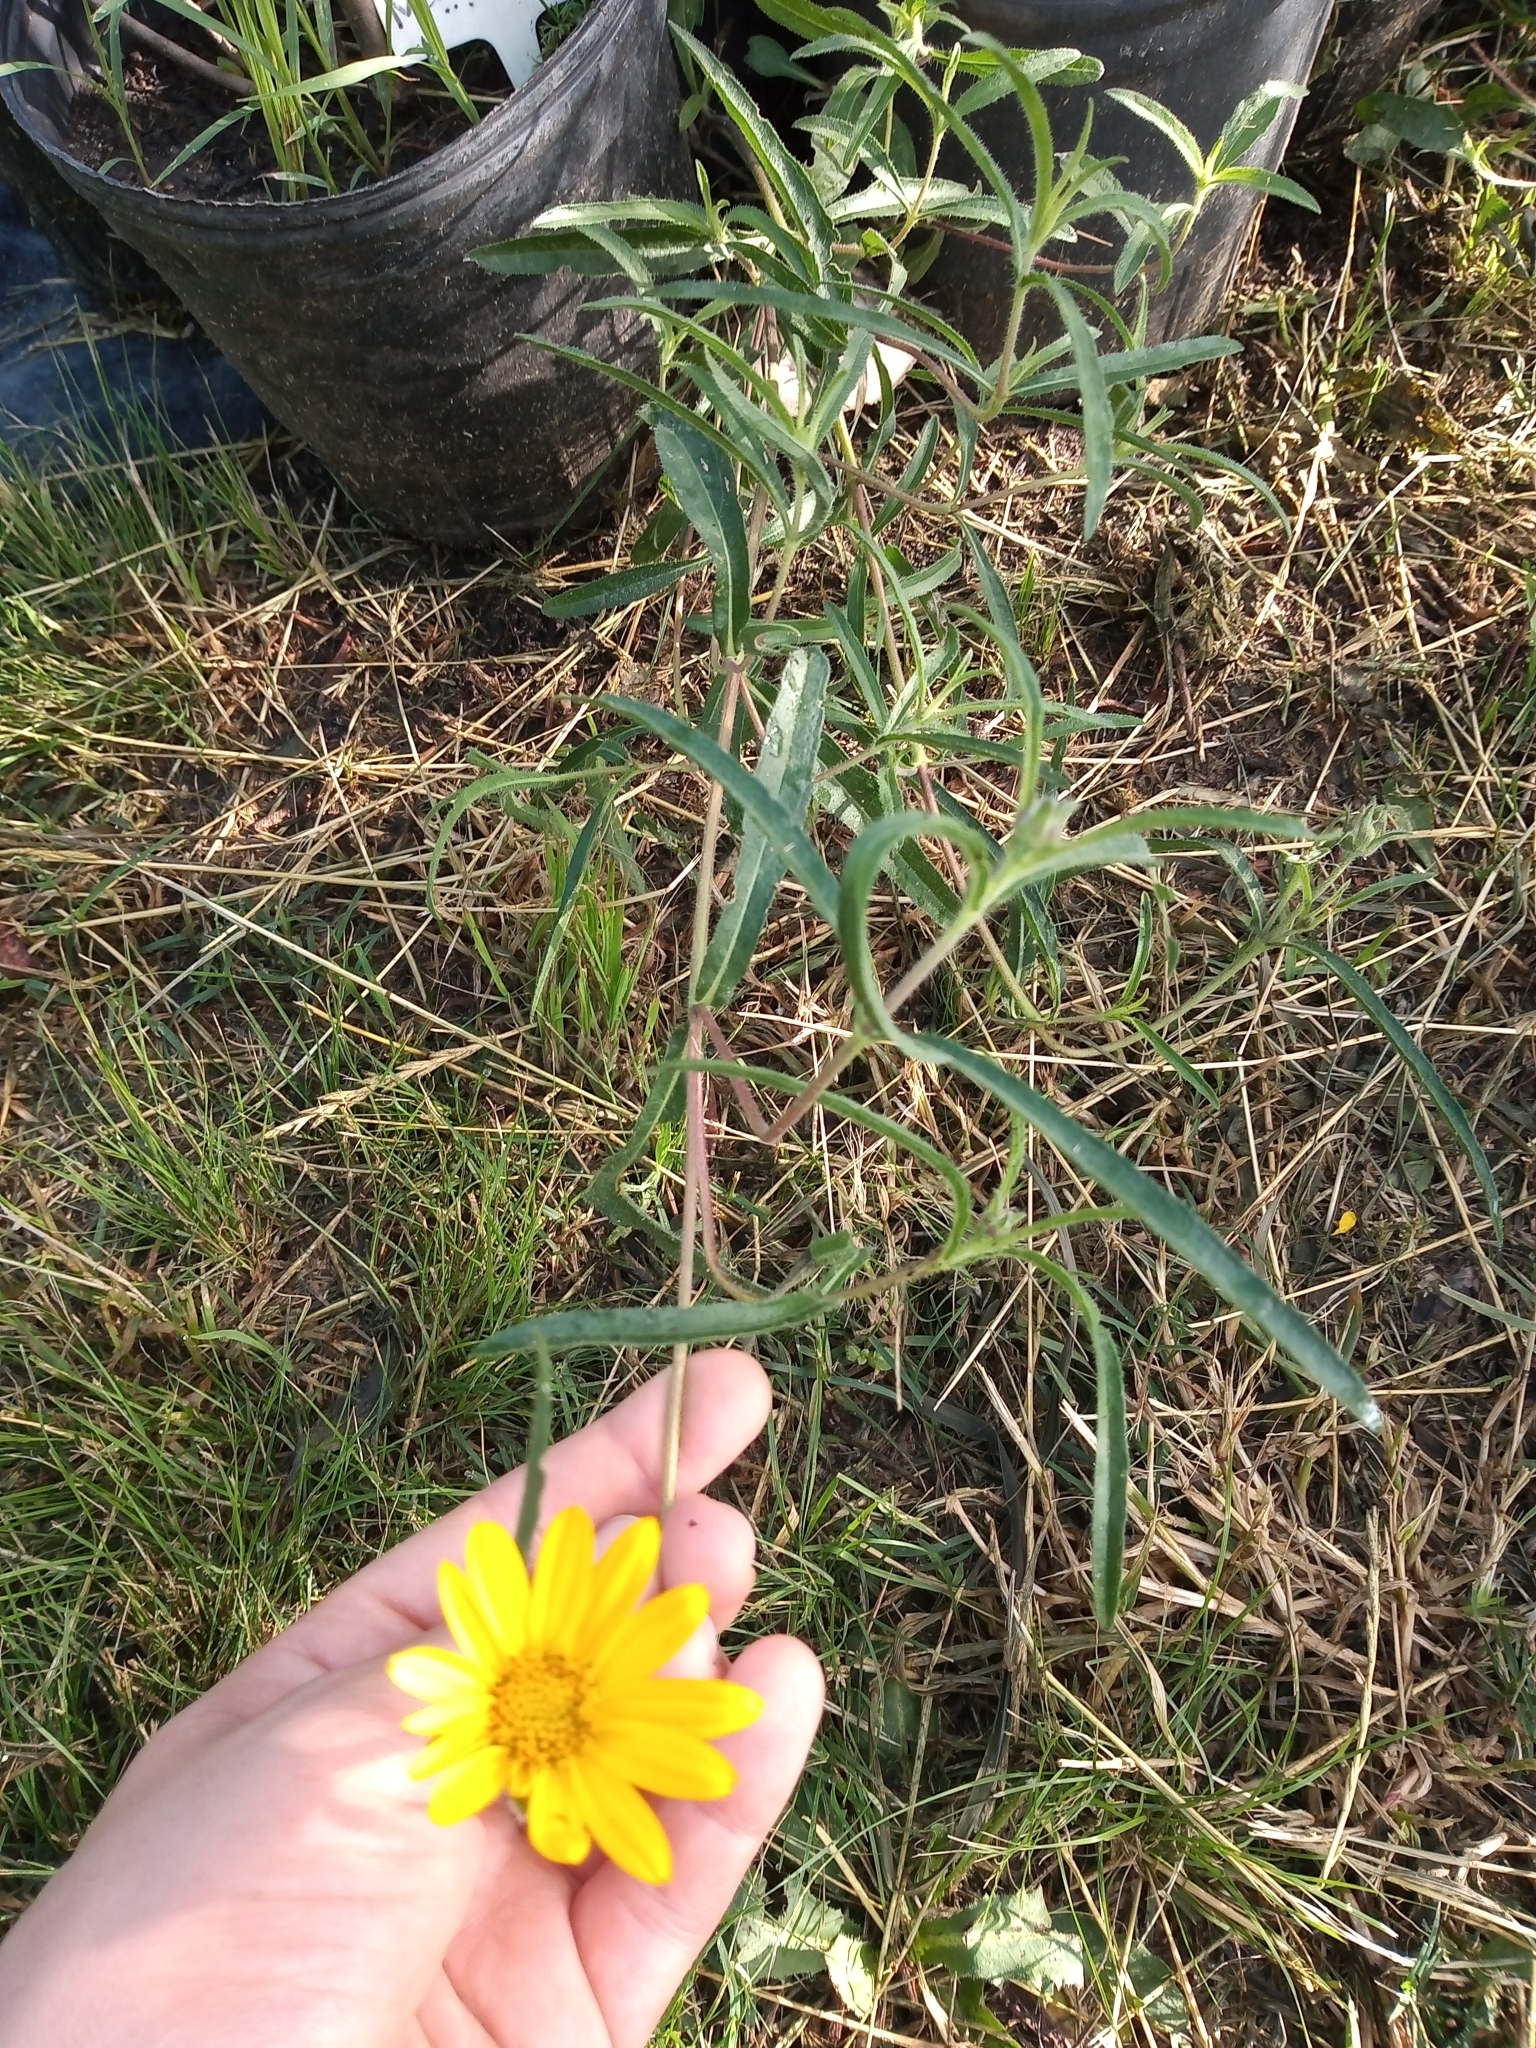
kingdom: Plantae
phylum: Tracheophyta
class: Magnoliopsida
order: Asterales
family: Asteraceae
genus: Wedelia
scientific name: Wedelia montevidensis
